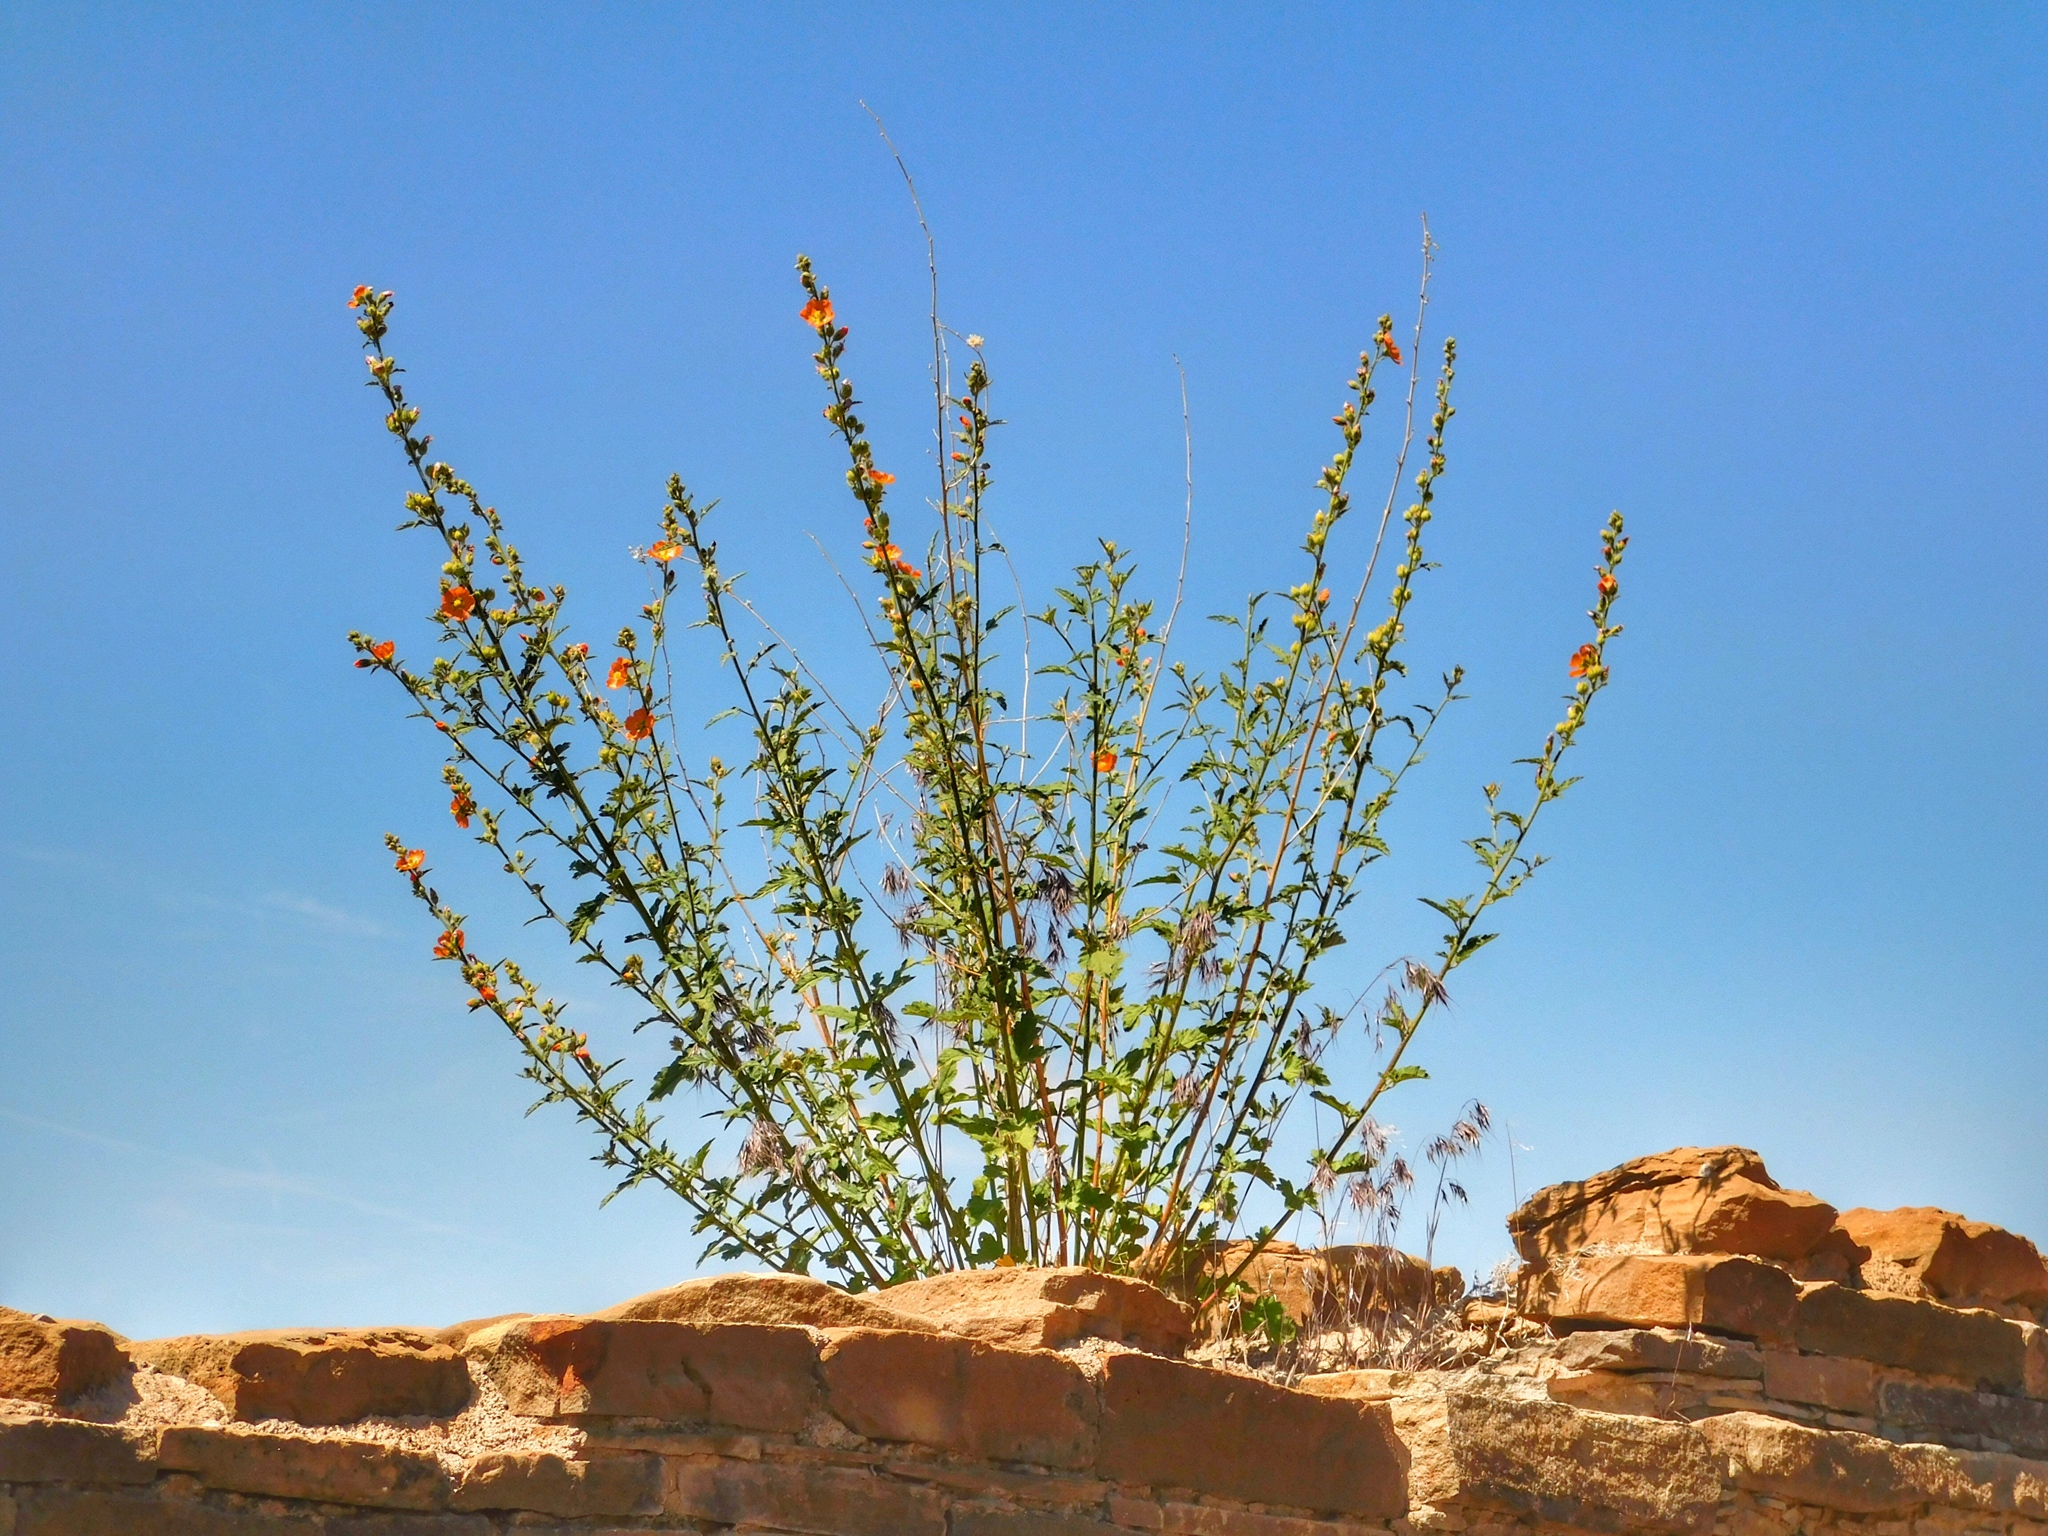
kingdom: Plantae
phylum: Tracheophyta
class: Magnoliopsida
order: Malvales
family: Malvaceae
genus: Sphaeralcea
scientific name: Sphaeralcea
